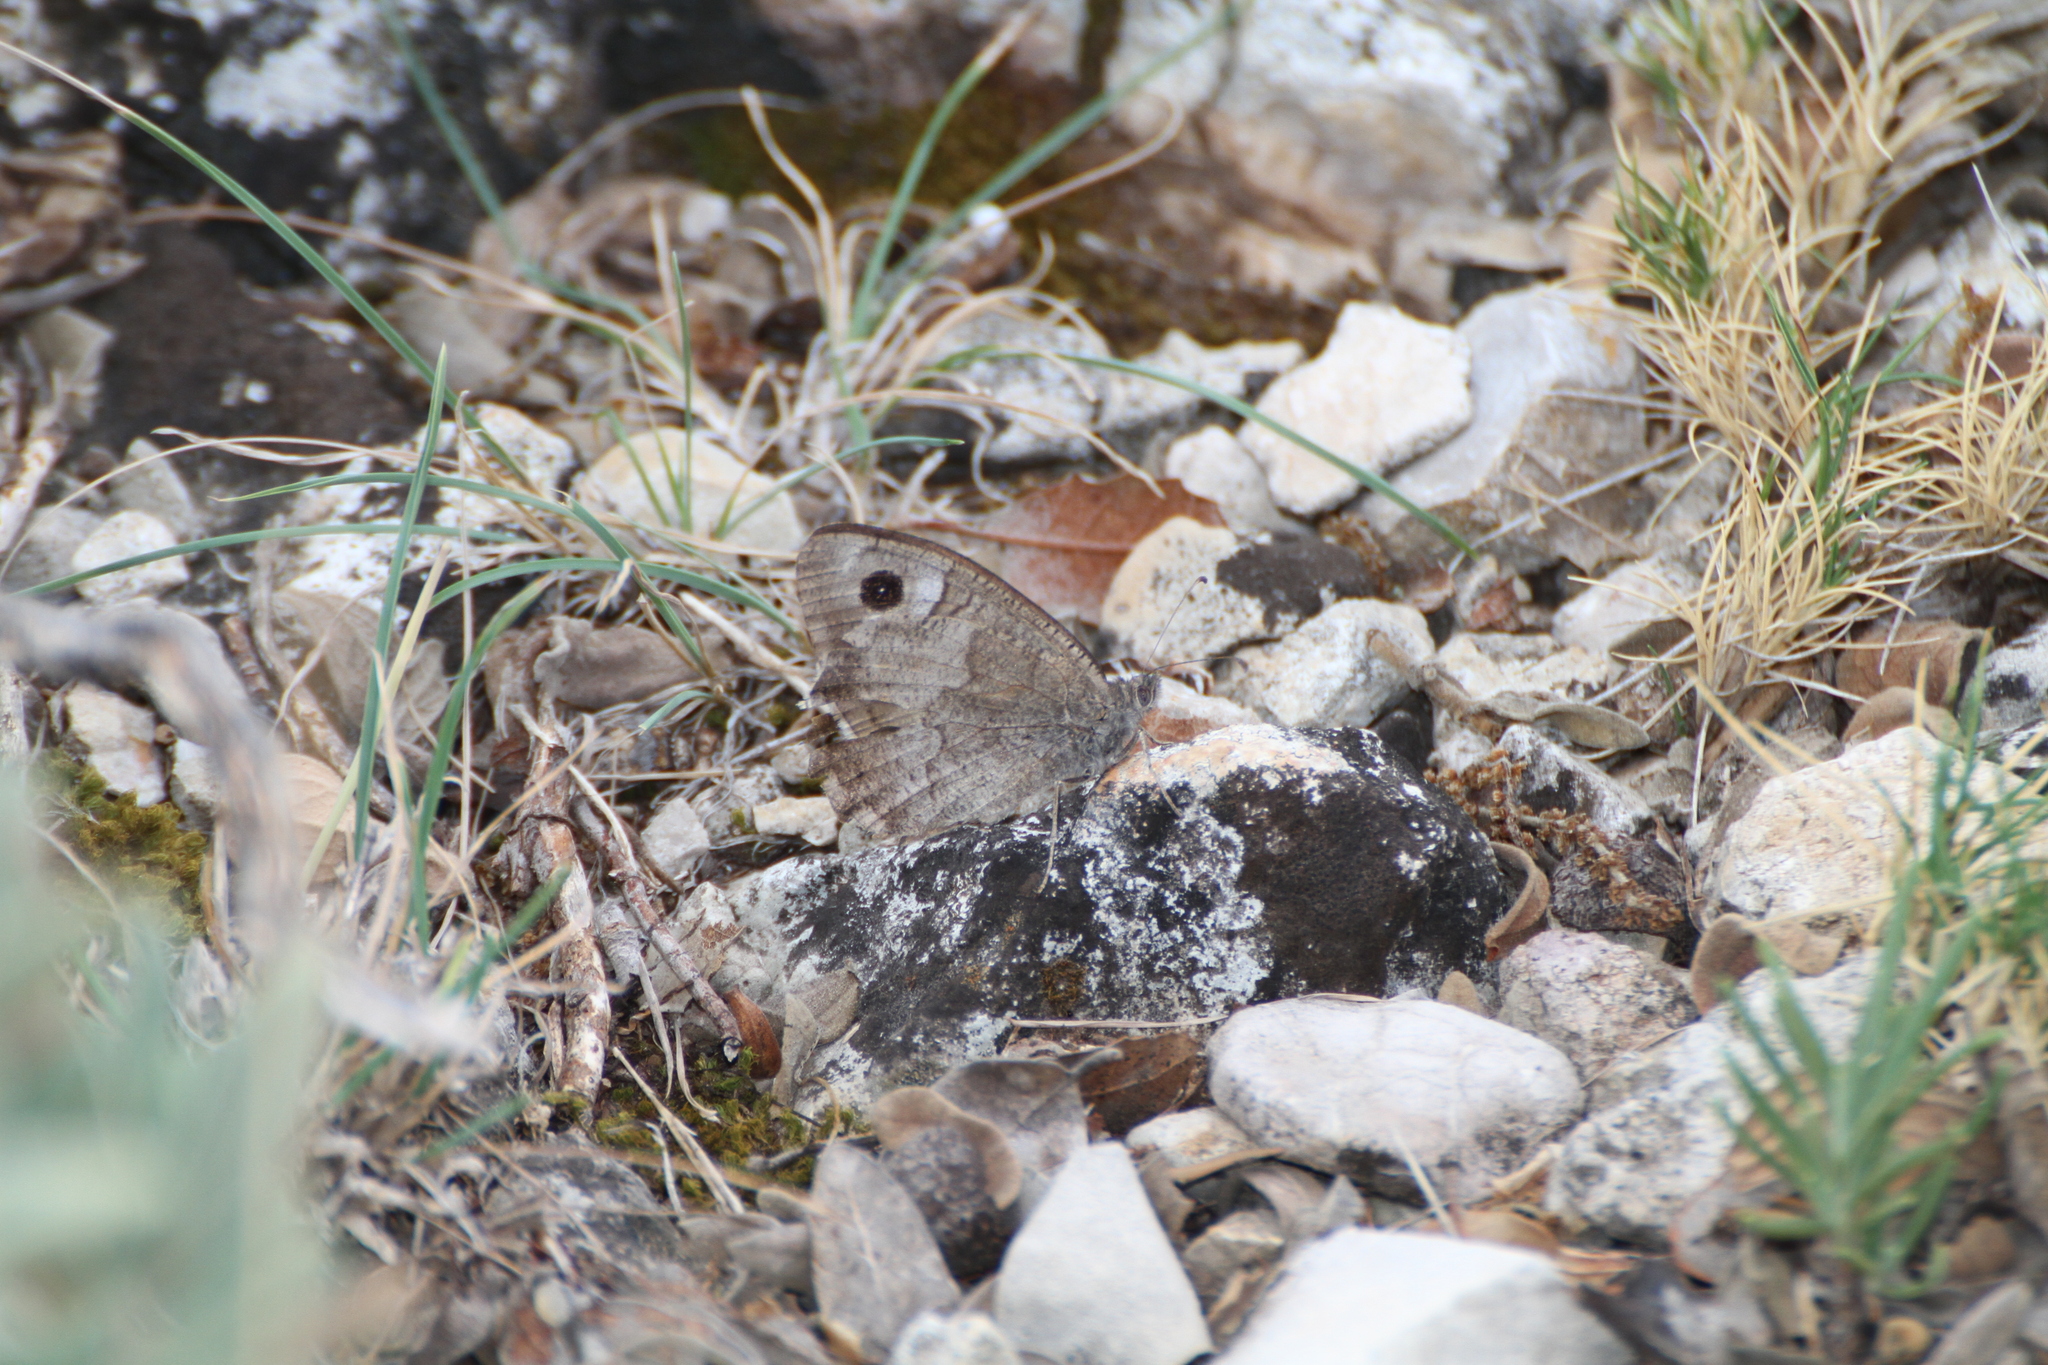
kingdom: Animalia
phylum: Arthropoda
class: Insecta
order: Lepidoptera
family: Nymphalidae
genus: Hipparchia
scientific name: Hipparchia statilinus
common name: Tree grayling
